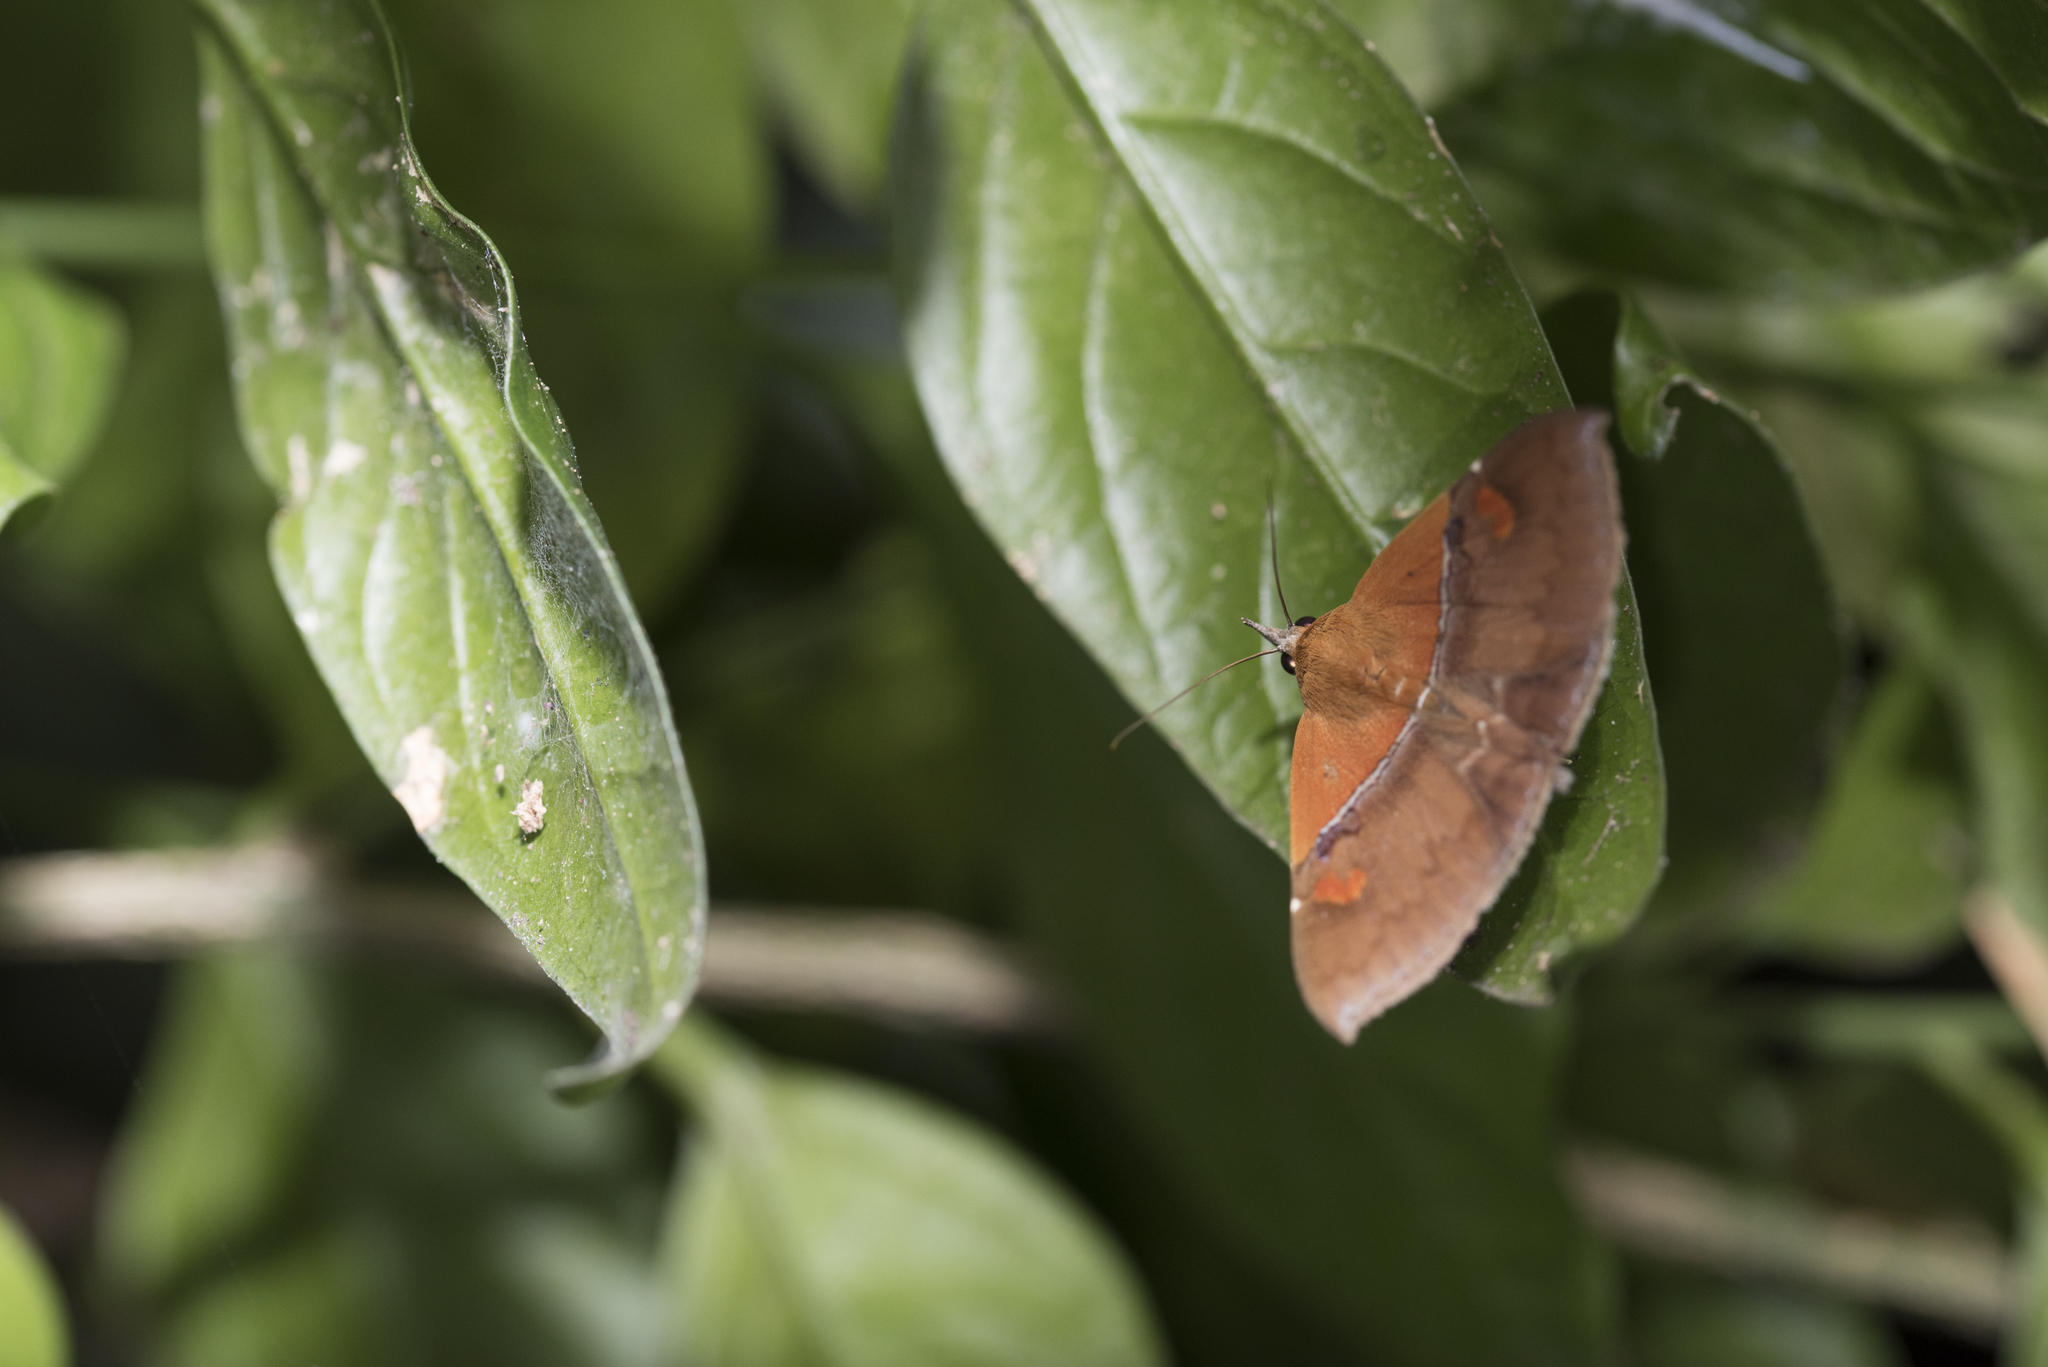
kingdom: Animalia
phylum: Arthropoda
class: Insecta
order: Lepidoptera
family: Erebidae
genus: Sympis
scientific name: Sympis rufibasis
